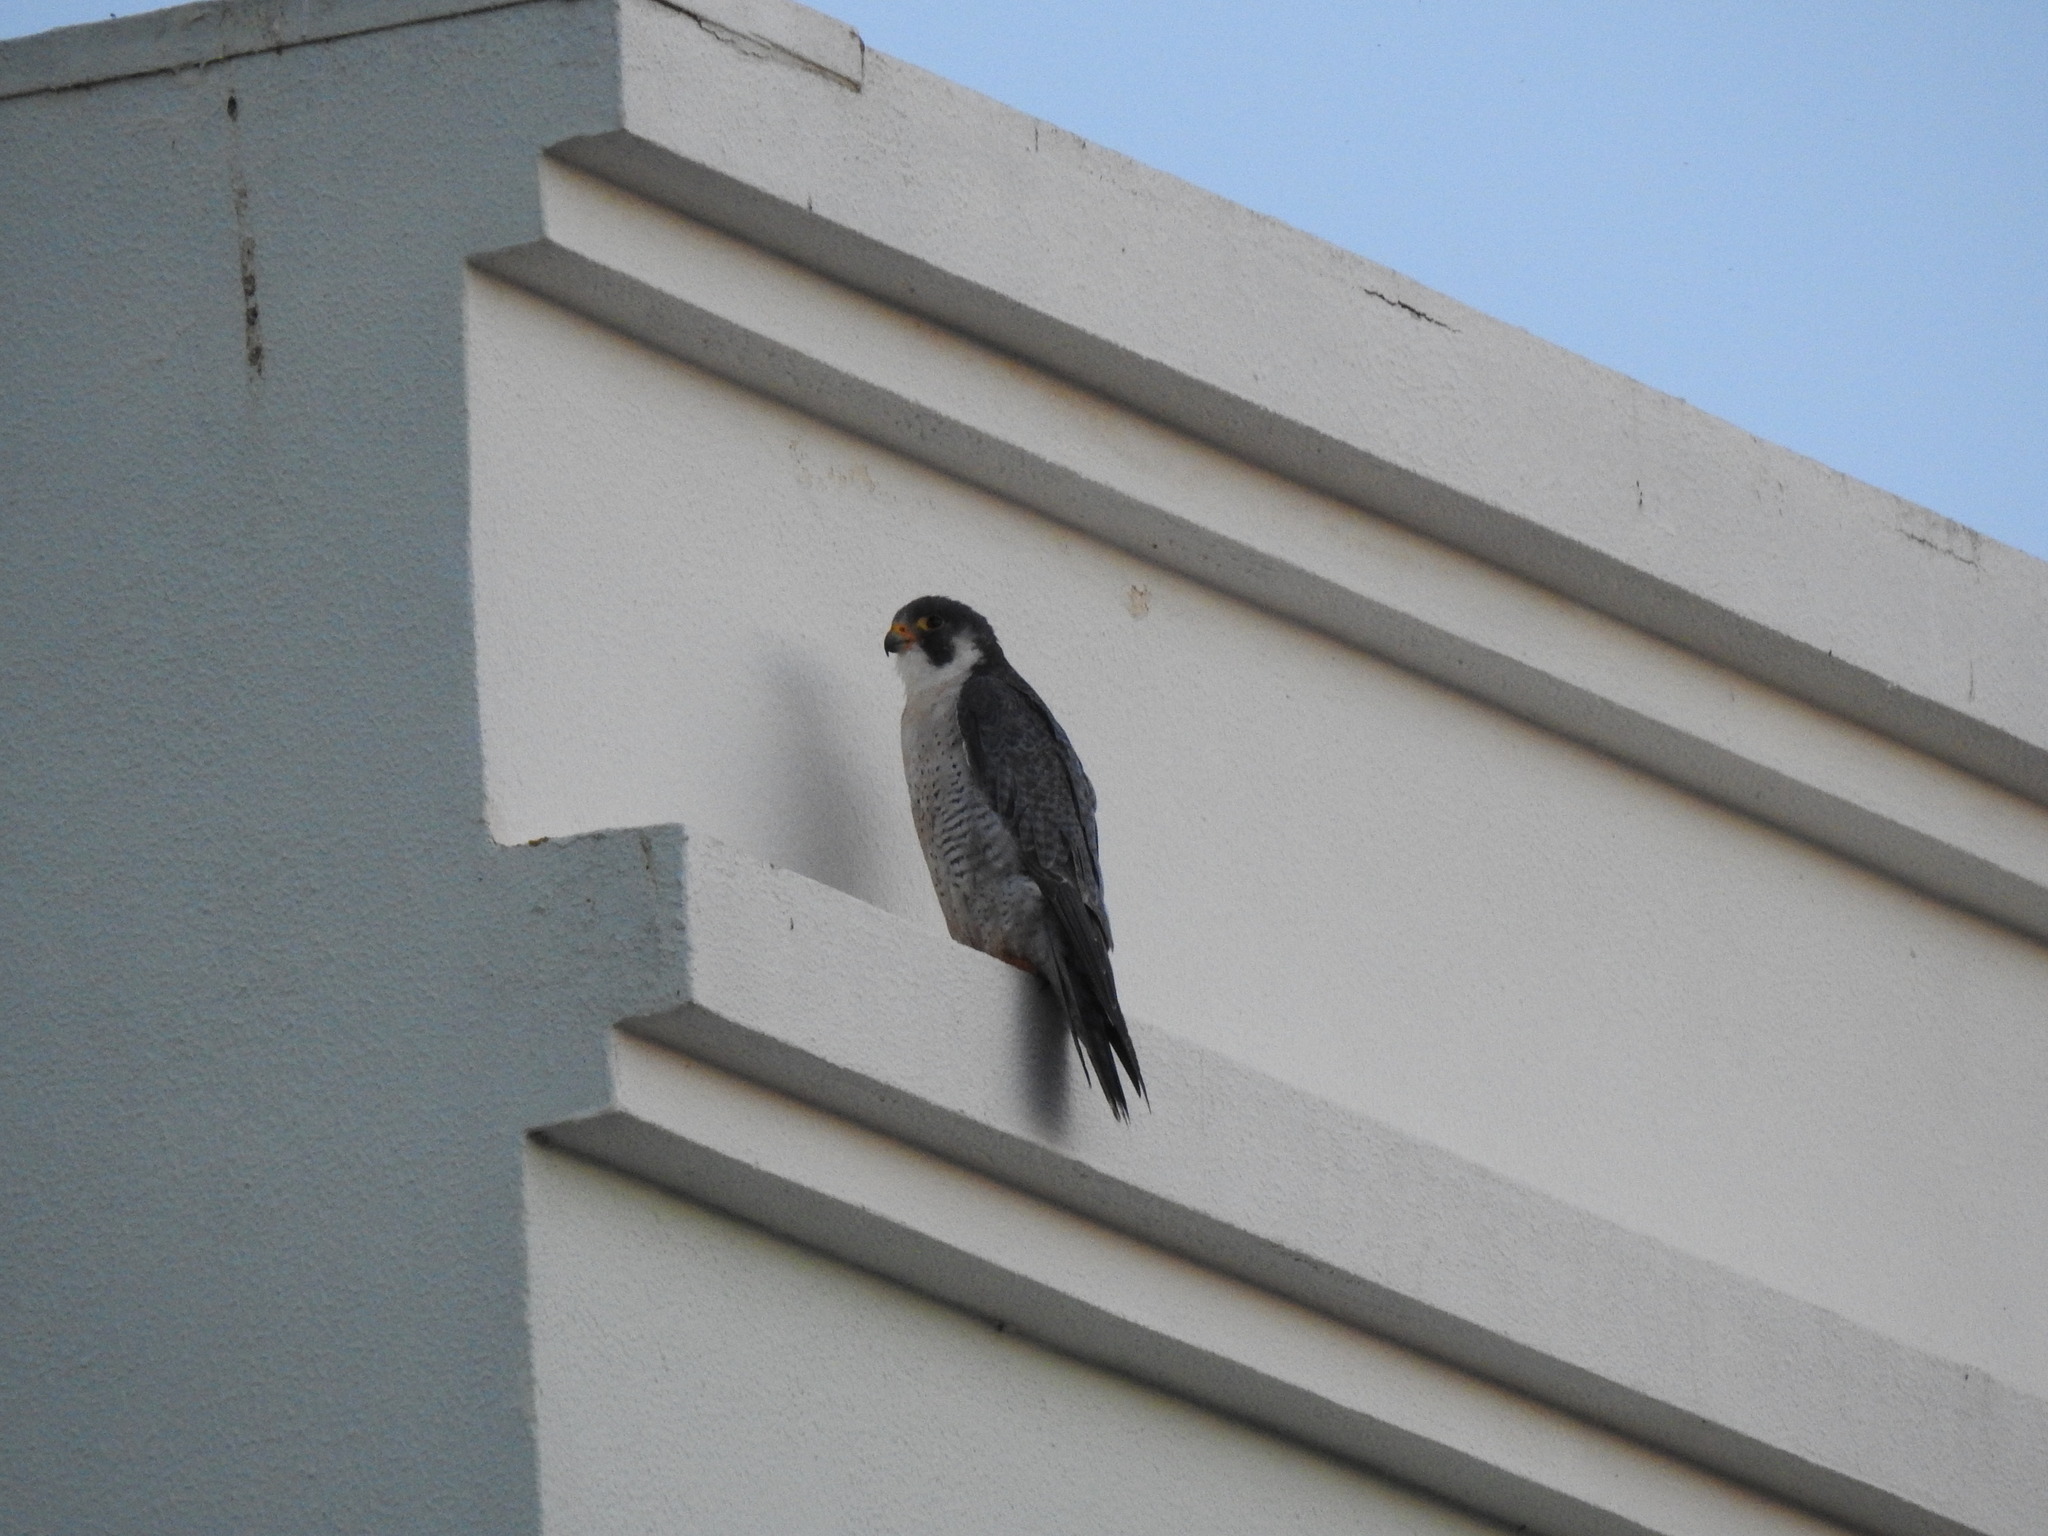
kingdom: Animalia
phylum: Chordata
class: Aves
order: Falconiformes
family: Falconidae
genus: Falco
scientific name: Falco peregrinus
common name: Peregrine falcon
